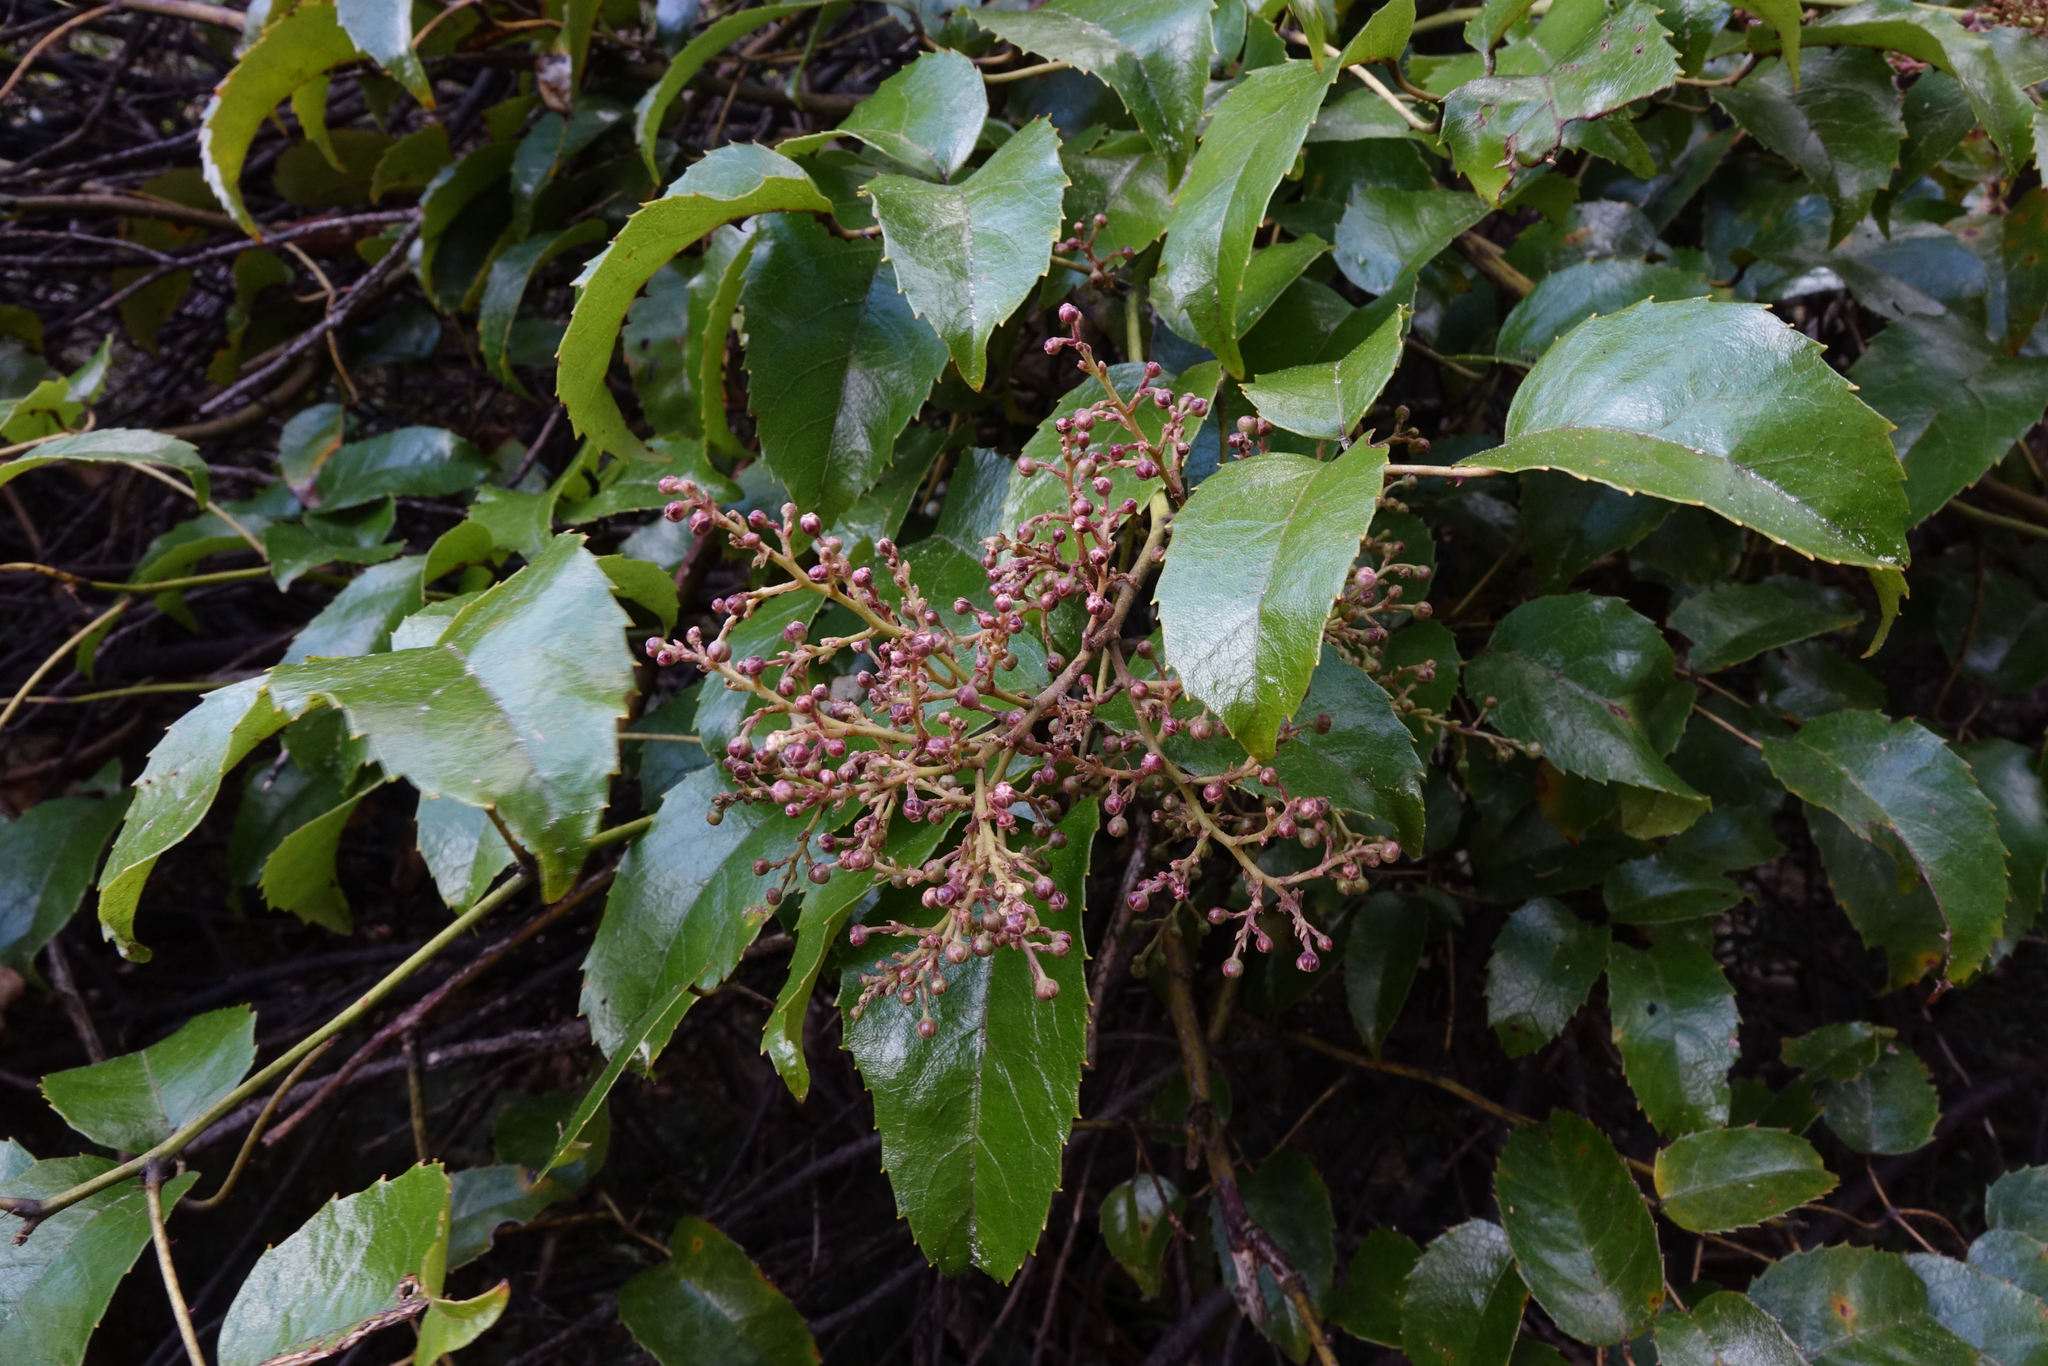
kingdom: Plantae
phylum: Tracheophyta
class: Magnoliopsida
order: Rosales
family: Rosaceae
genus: Rubus
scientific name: Rubus cissoides
